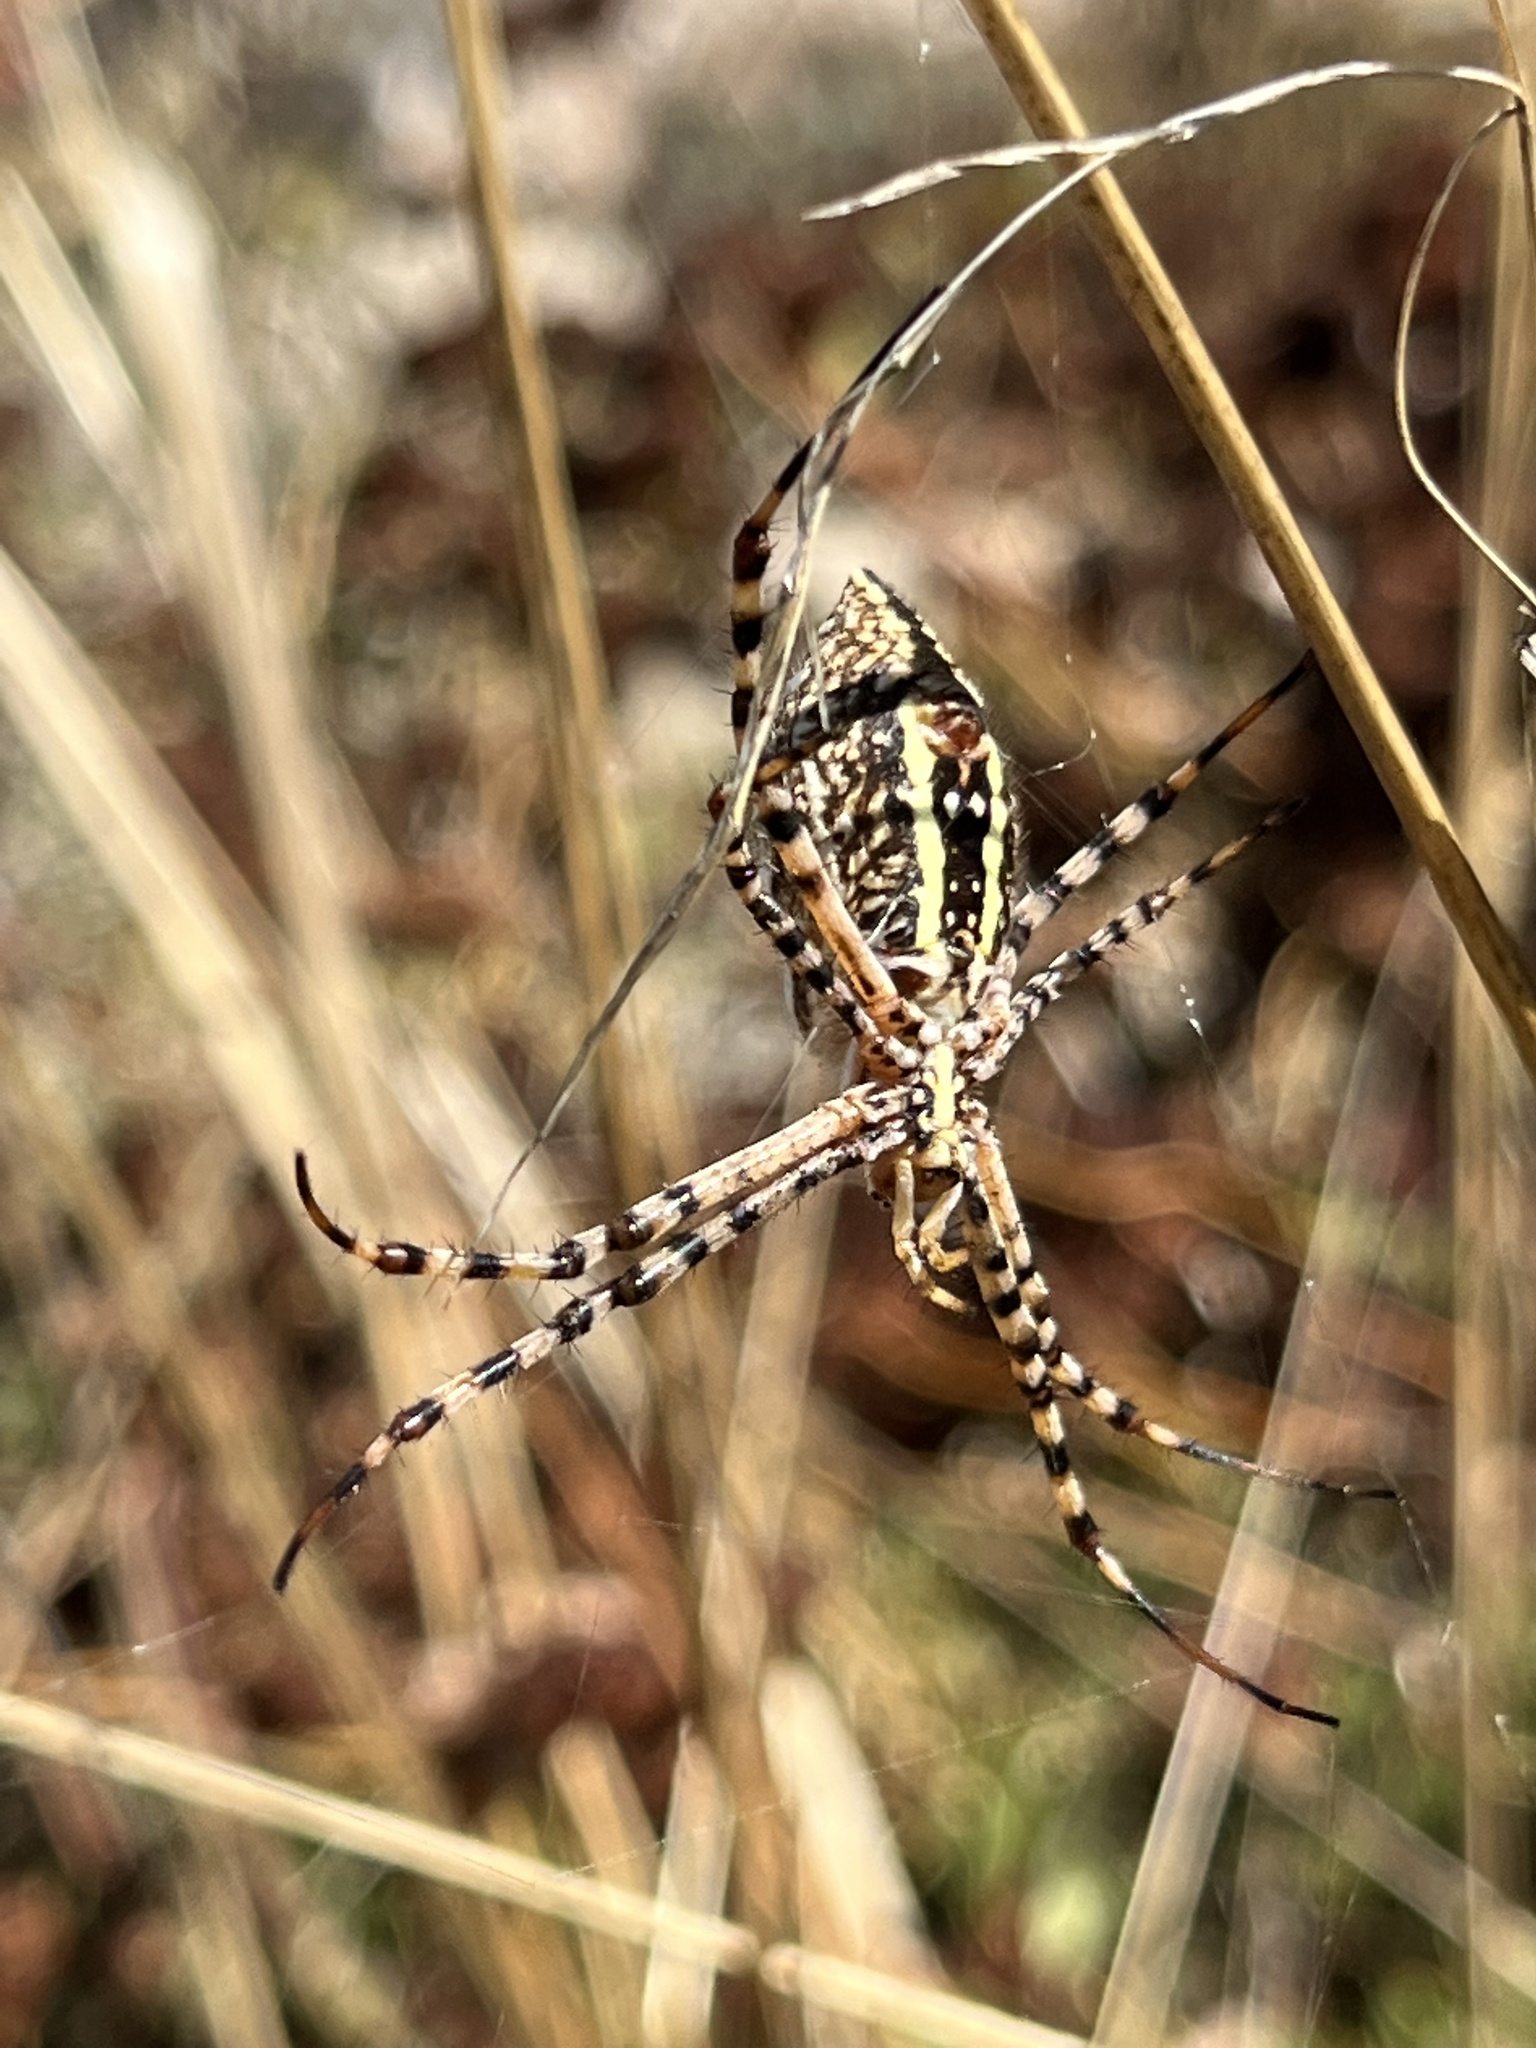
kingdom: Animalia
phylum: Arthropoda
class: Arachnida
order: Araneae
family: Araneidae
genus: Argiope
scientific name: Argiope trifasciata
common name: Banded garden spider
